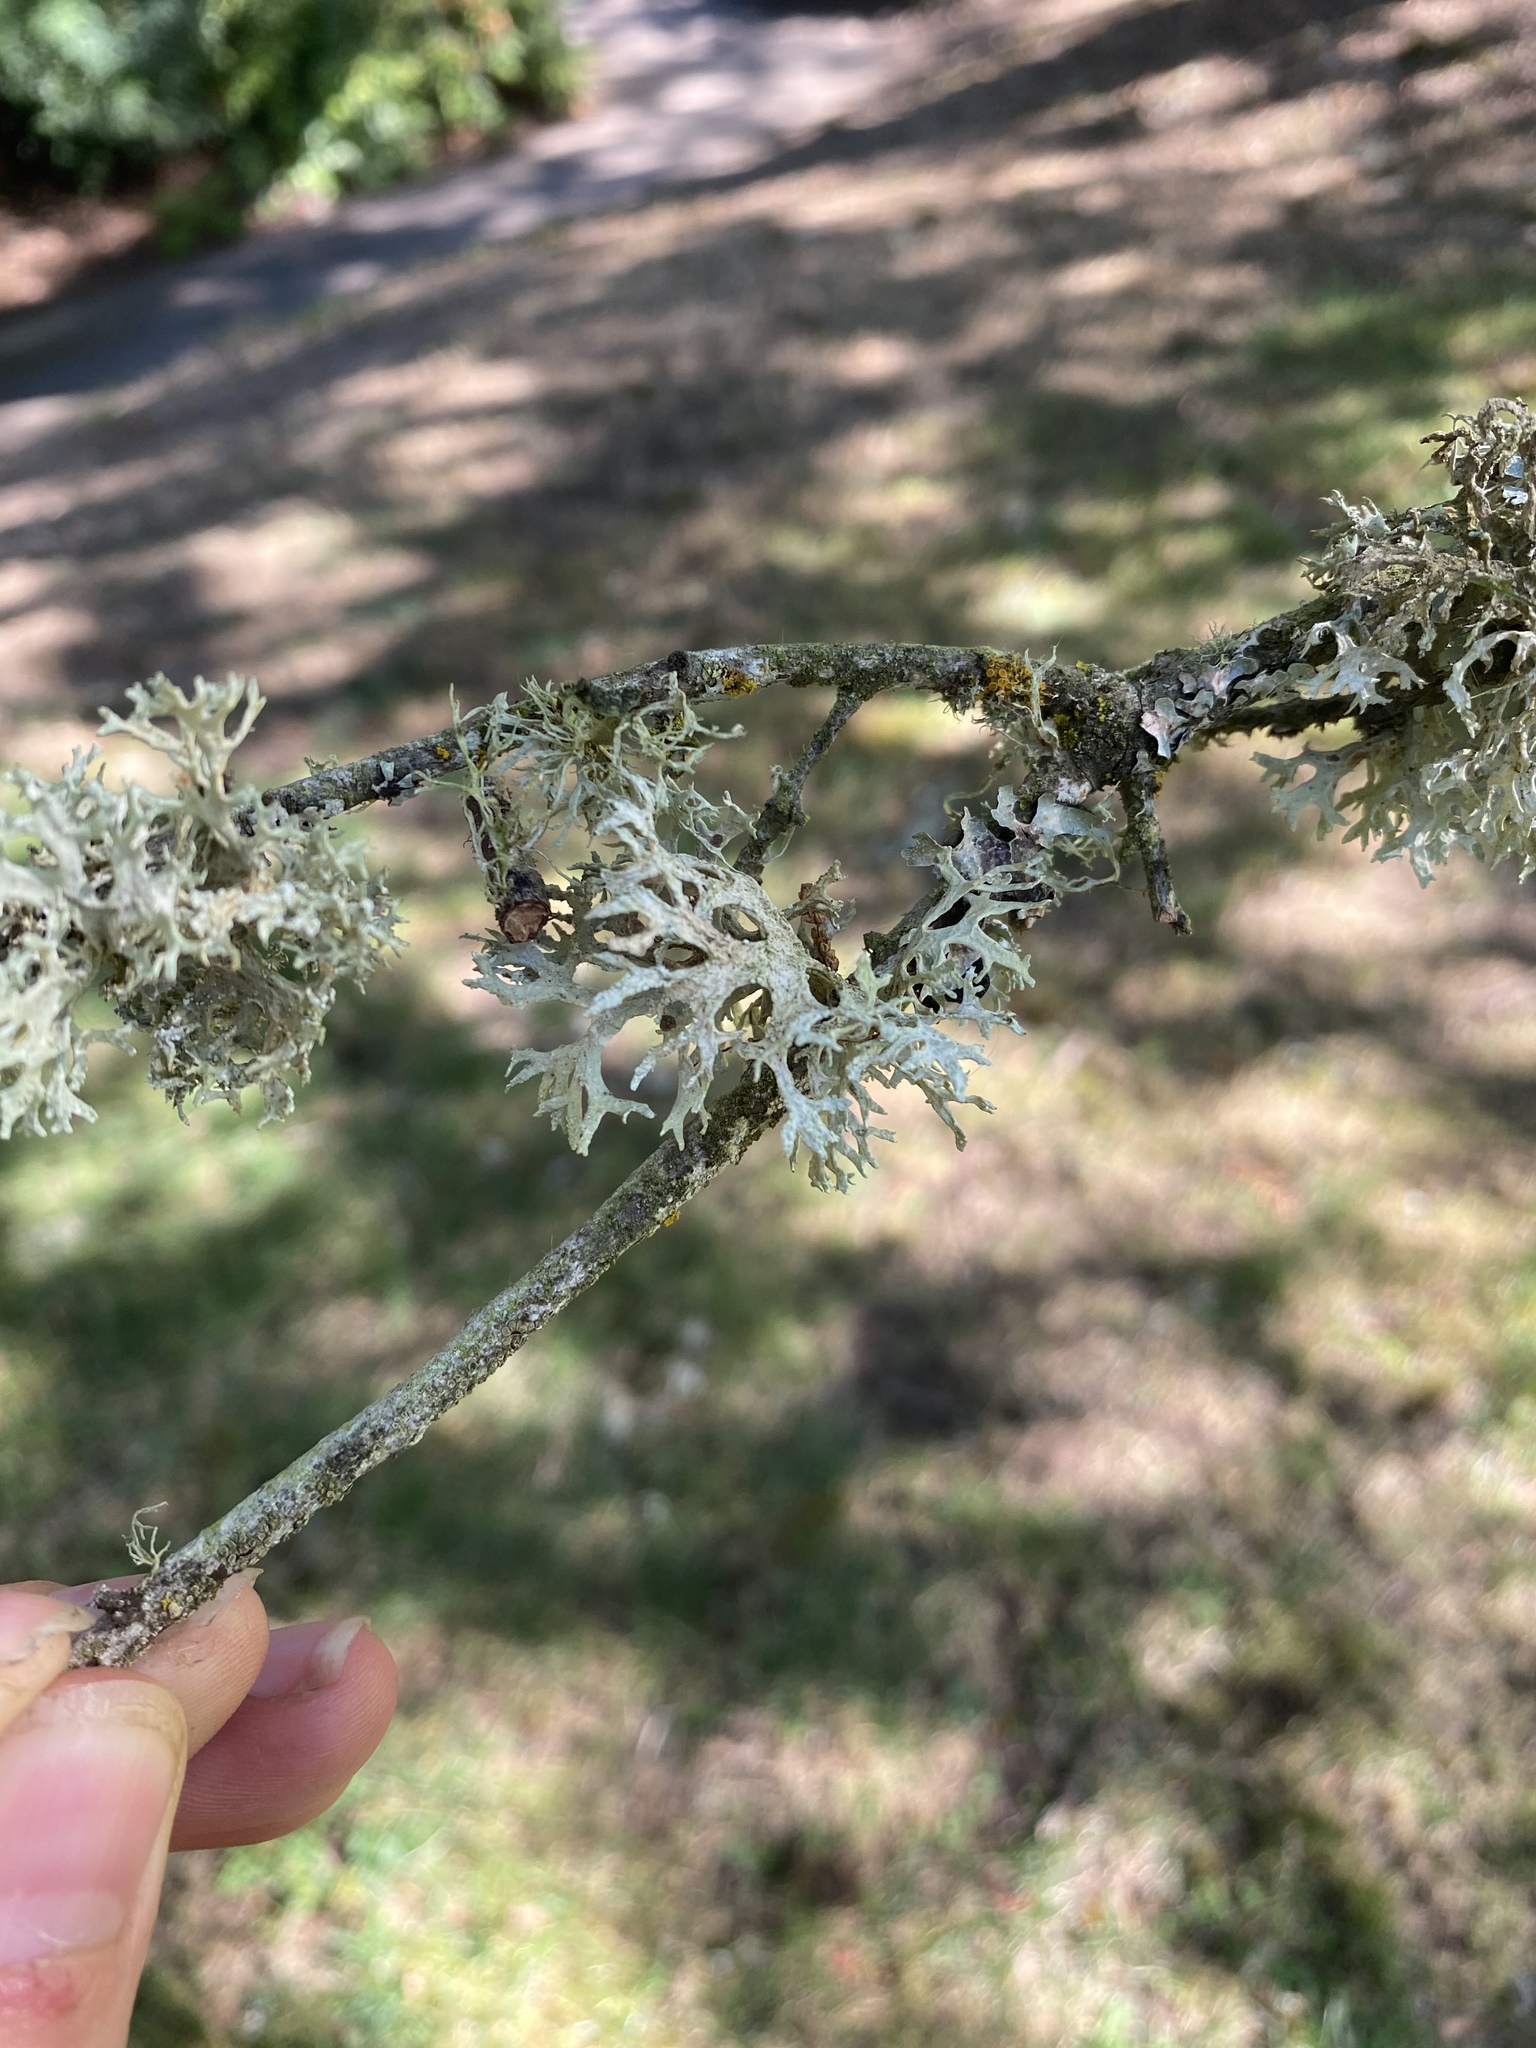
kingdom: Fungi
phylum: Ascomycota
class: Lecanoromycetes
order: Lecanorales
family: Parmeliaceae
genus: Evernia
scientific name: Evernia prunastri
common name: Oak moss
